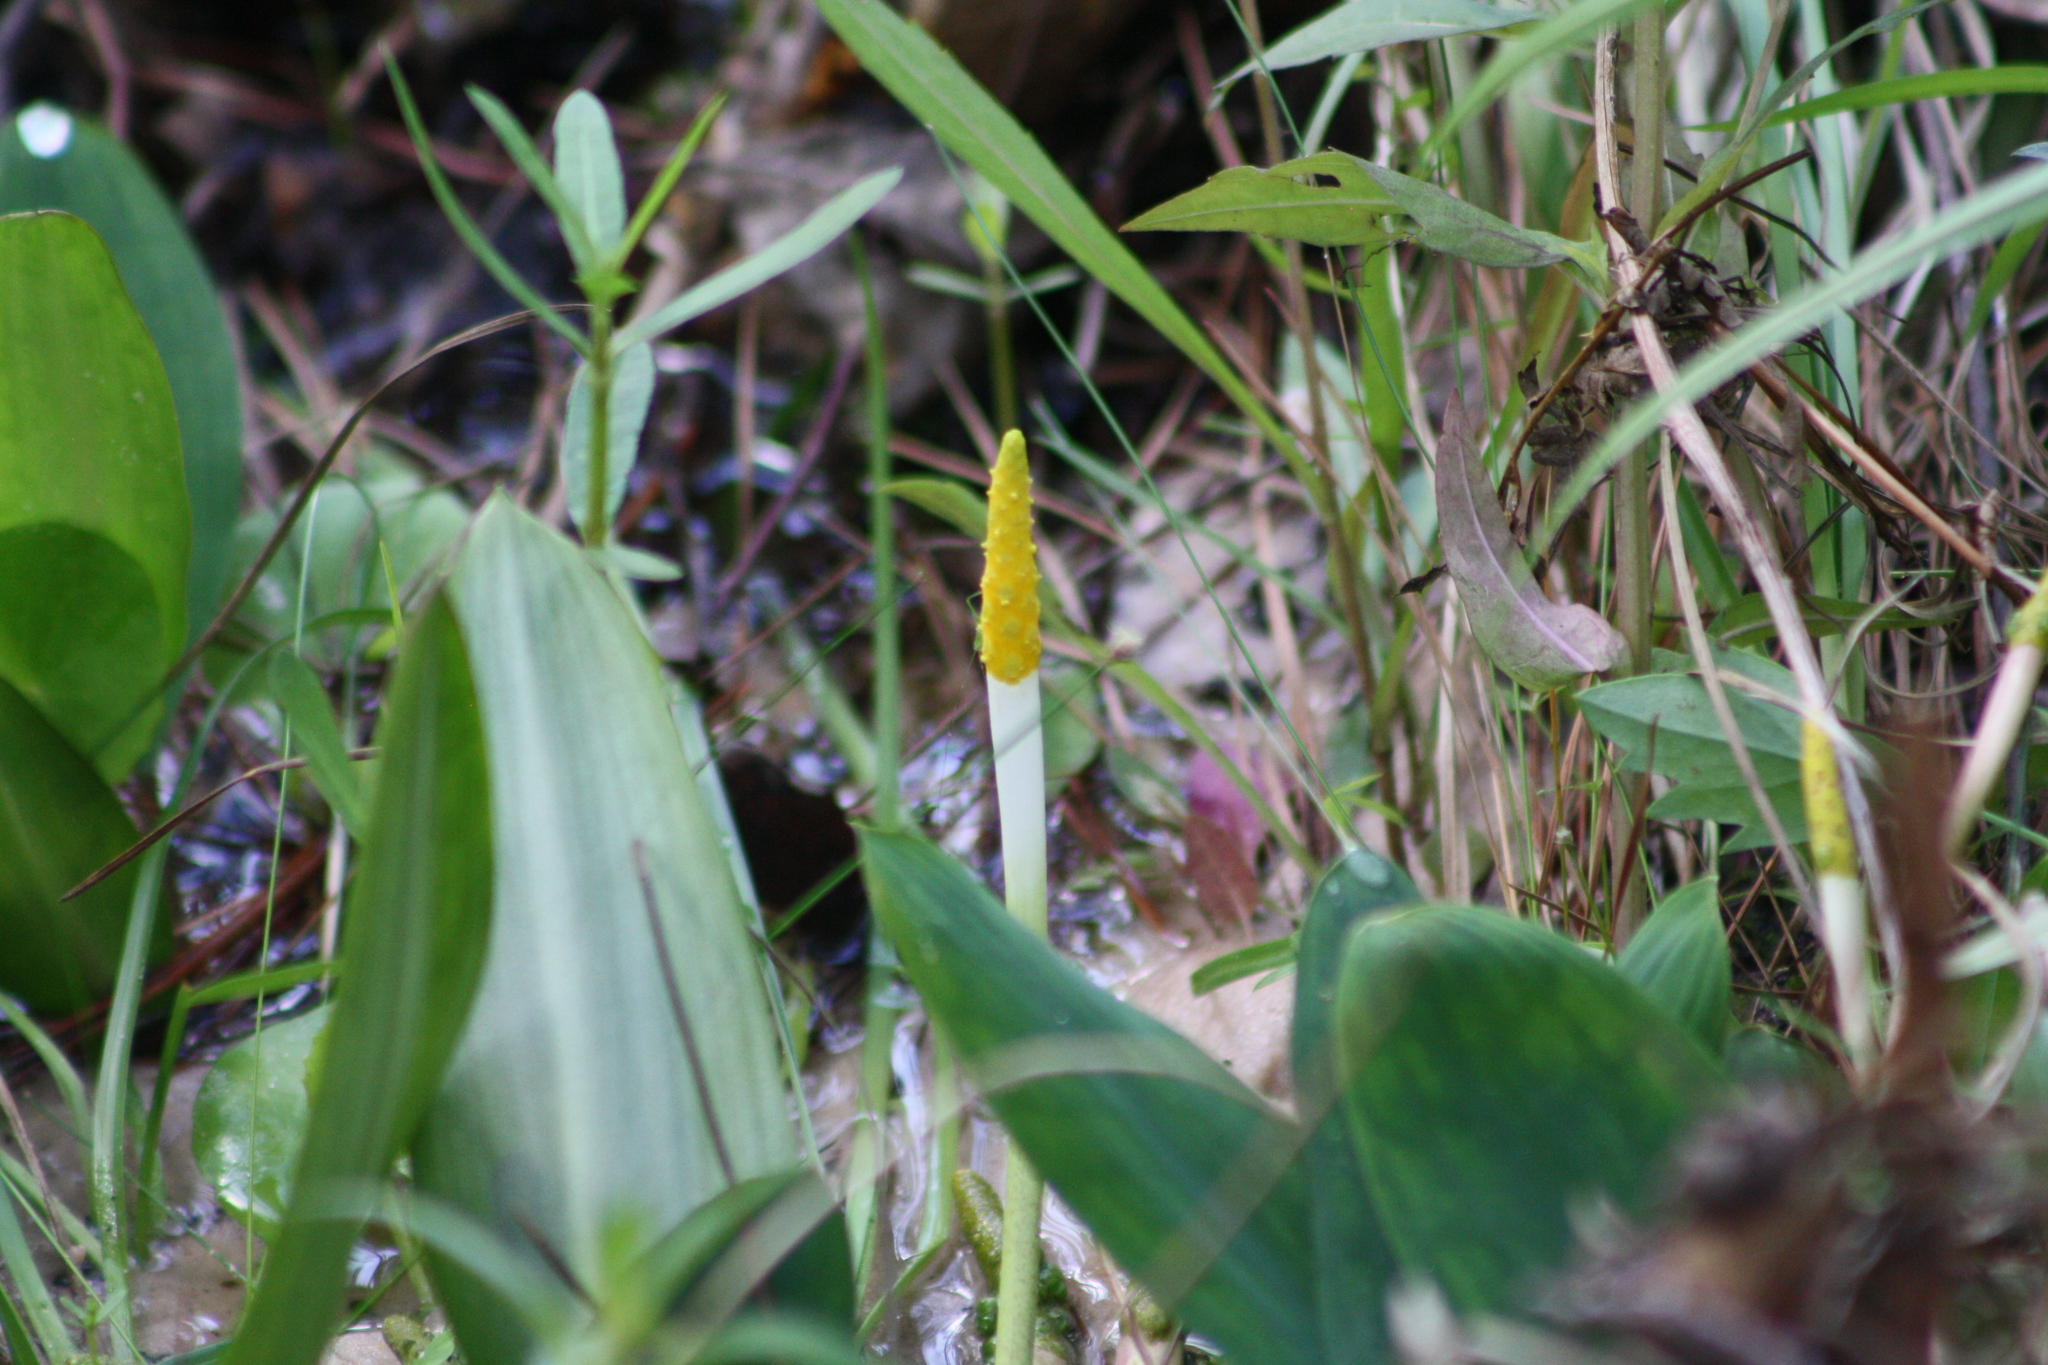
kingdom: Plantae
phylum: Tracheophyta
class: Liliopsida
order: Alismatales
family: Araceae
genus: Orontium
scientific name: Orontium aquaticum
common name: Golden-club
